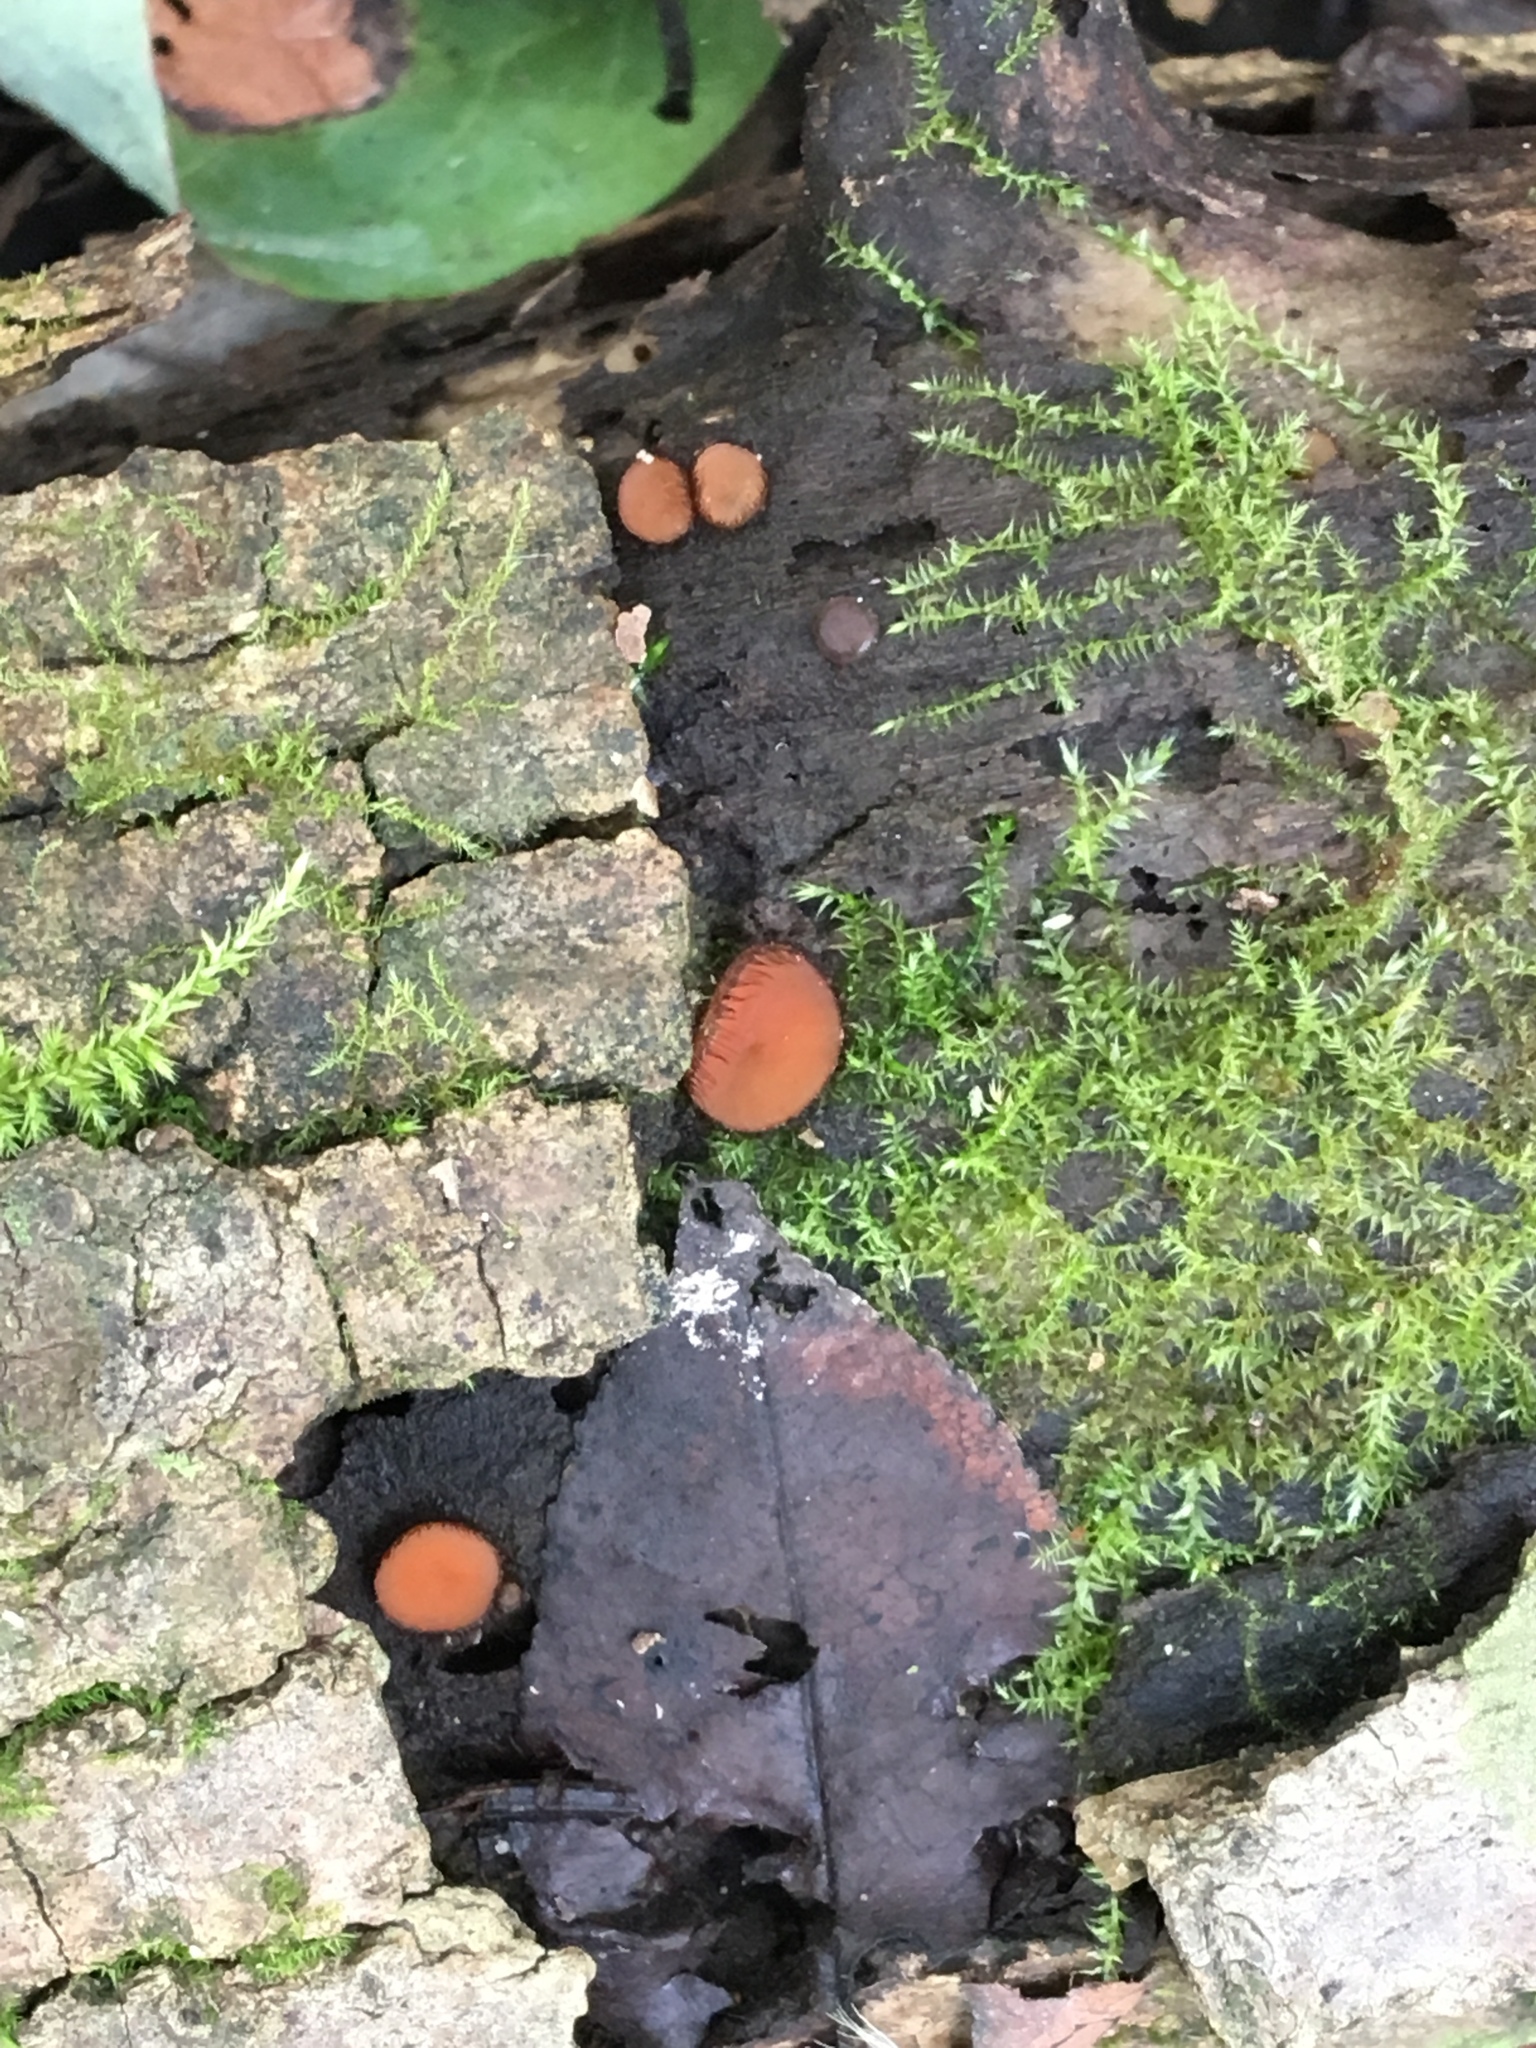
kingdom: Fungi
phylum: Ascomycota
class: Pezizomycetes
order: Pezizales
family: Pyronemataceae
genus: Scutellinia
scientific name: Scutellinia scutellata
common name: Common eyelash
